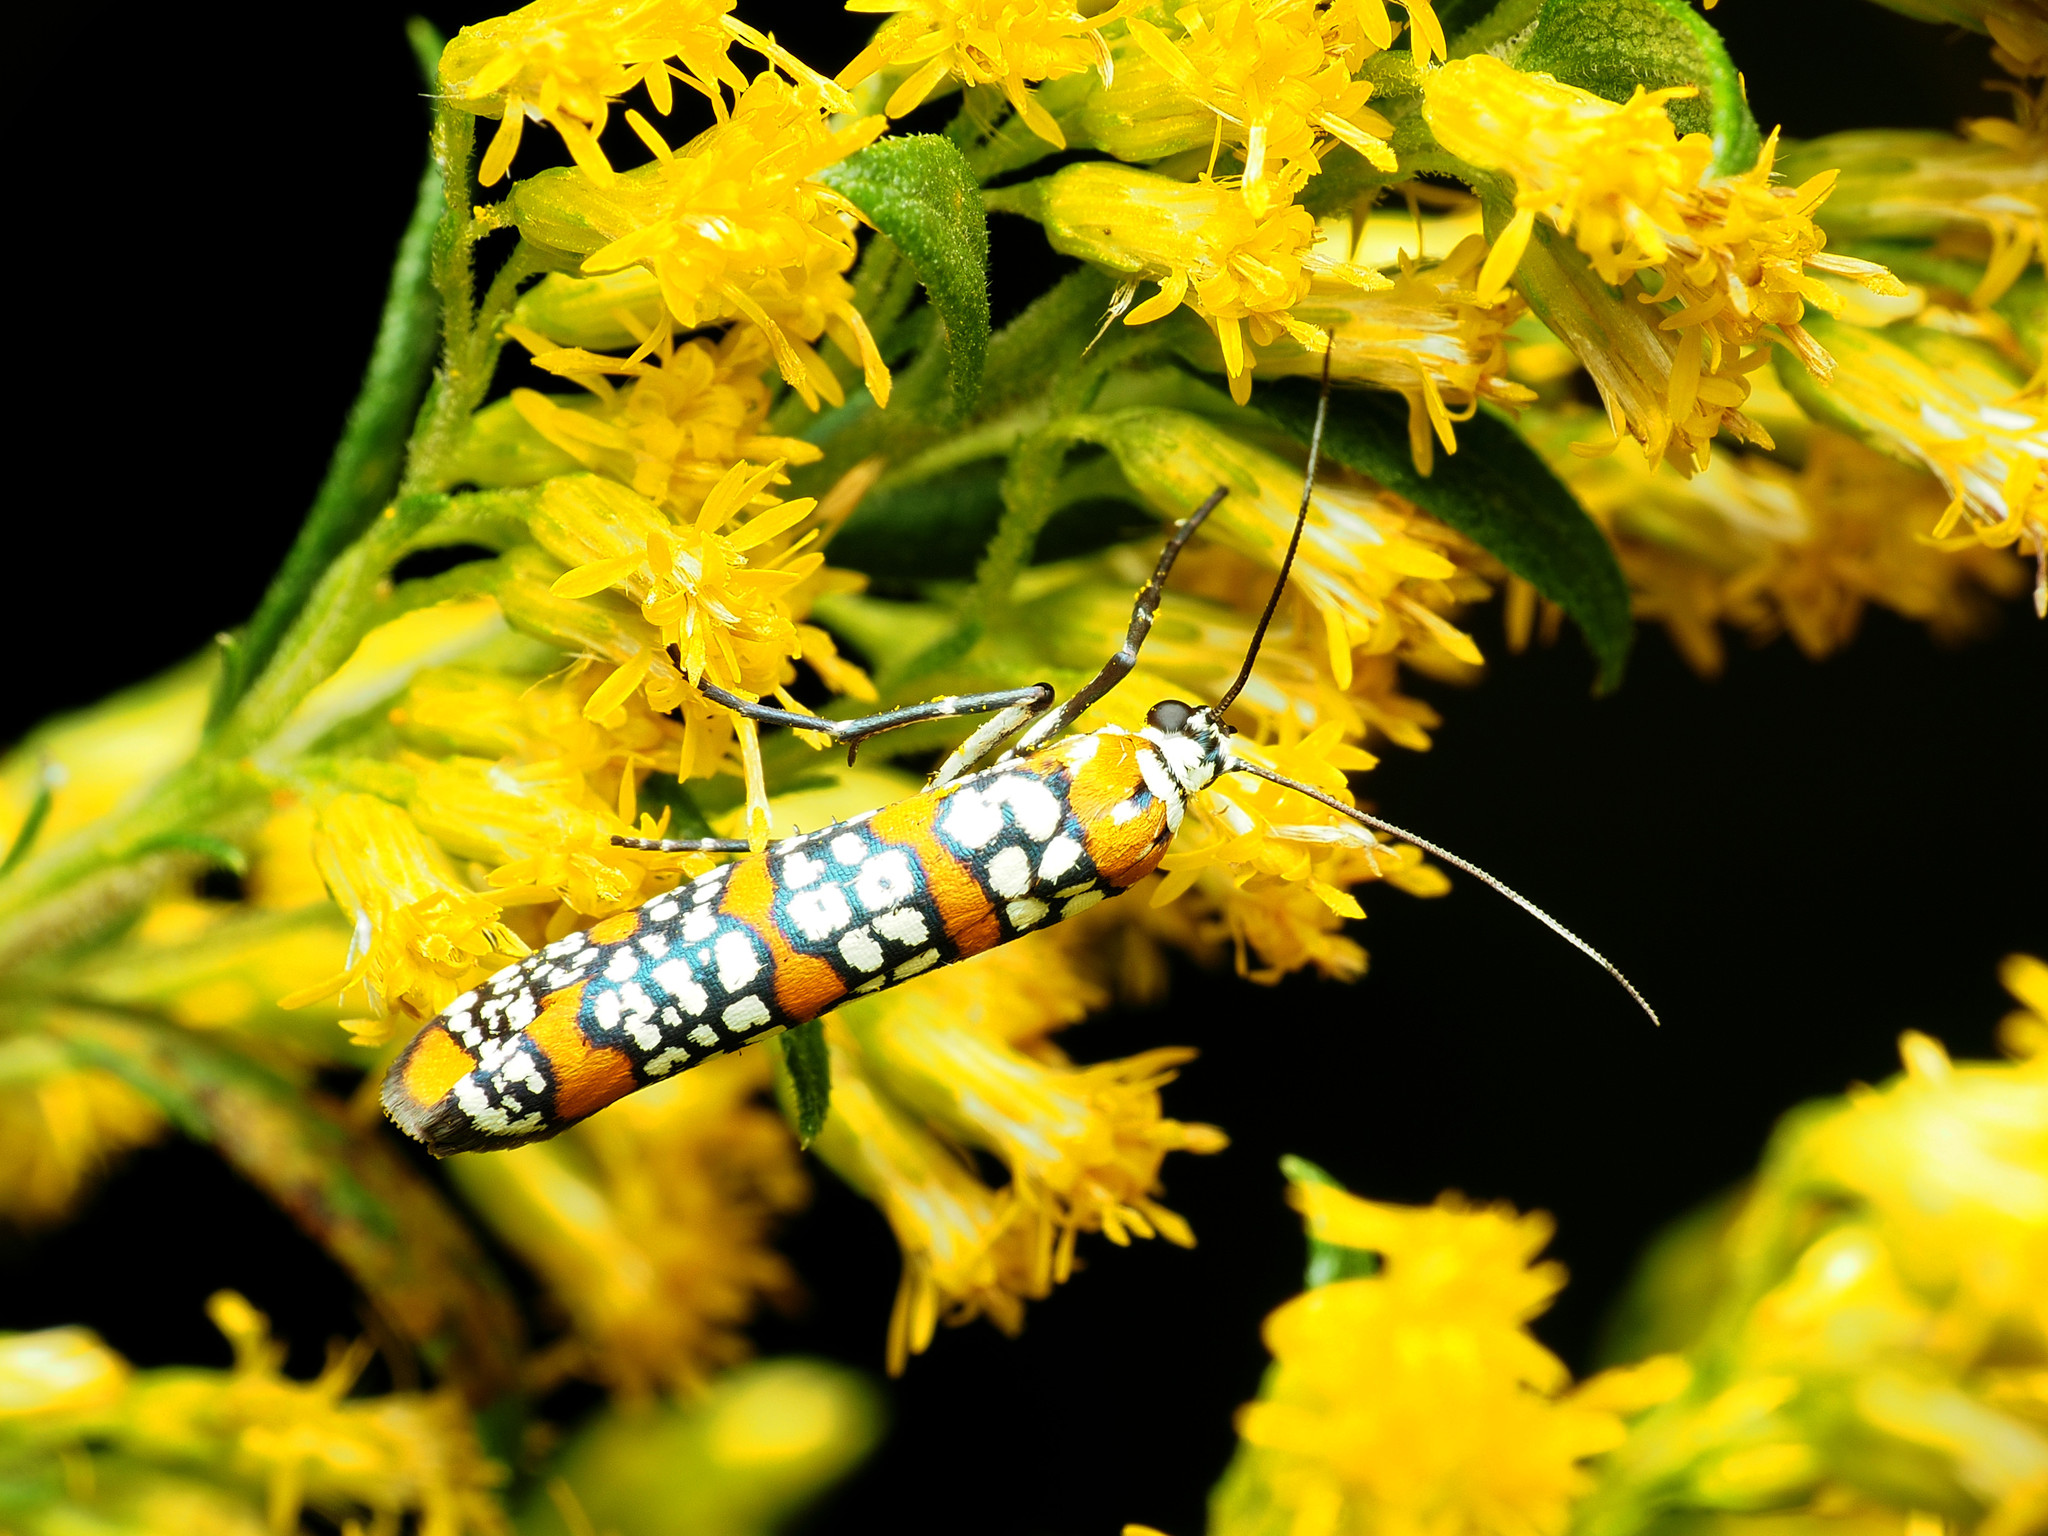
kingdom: Animalia
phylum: Arthropoda
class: Insecta
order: Lepidoptera
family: Attevidae
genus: Atteva
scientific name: Atteva punctella
